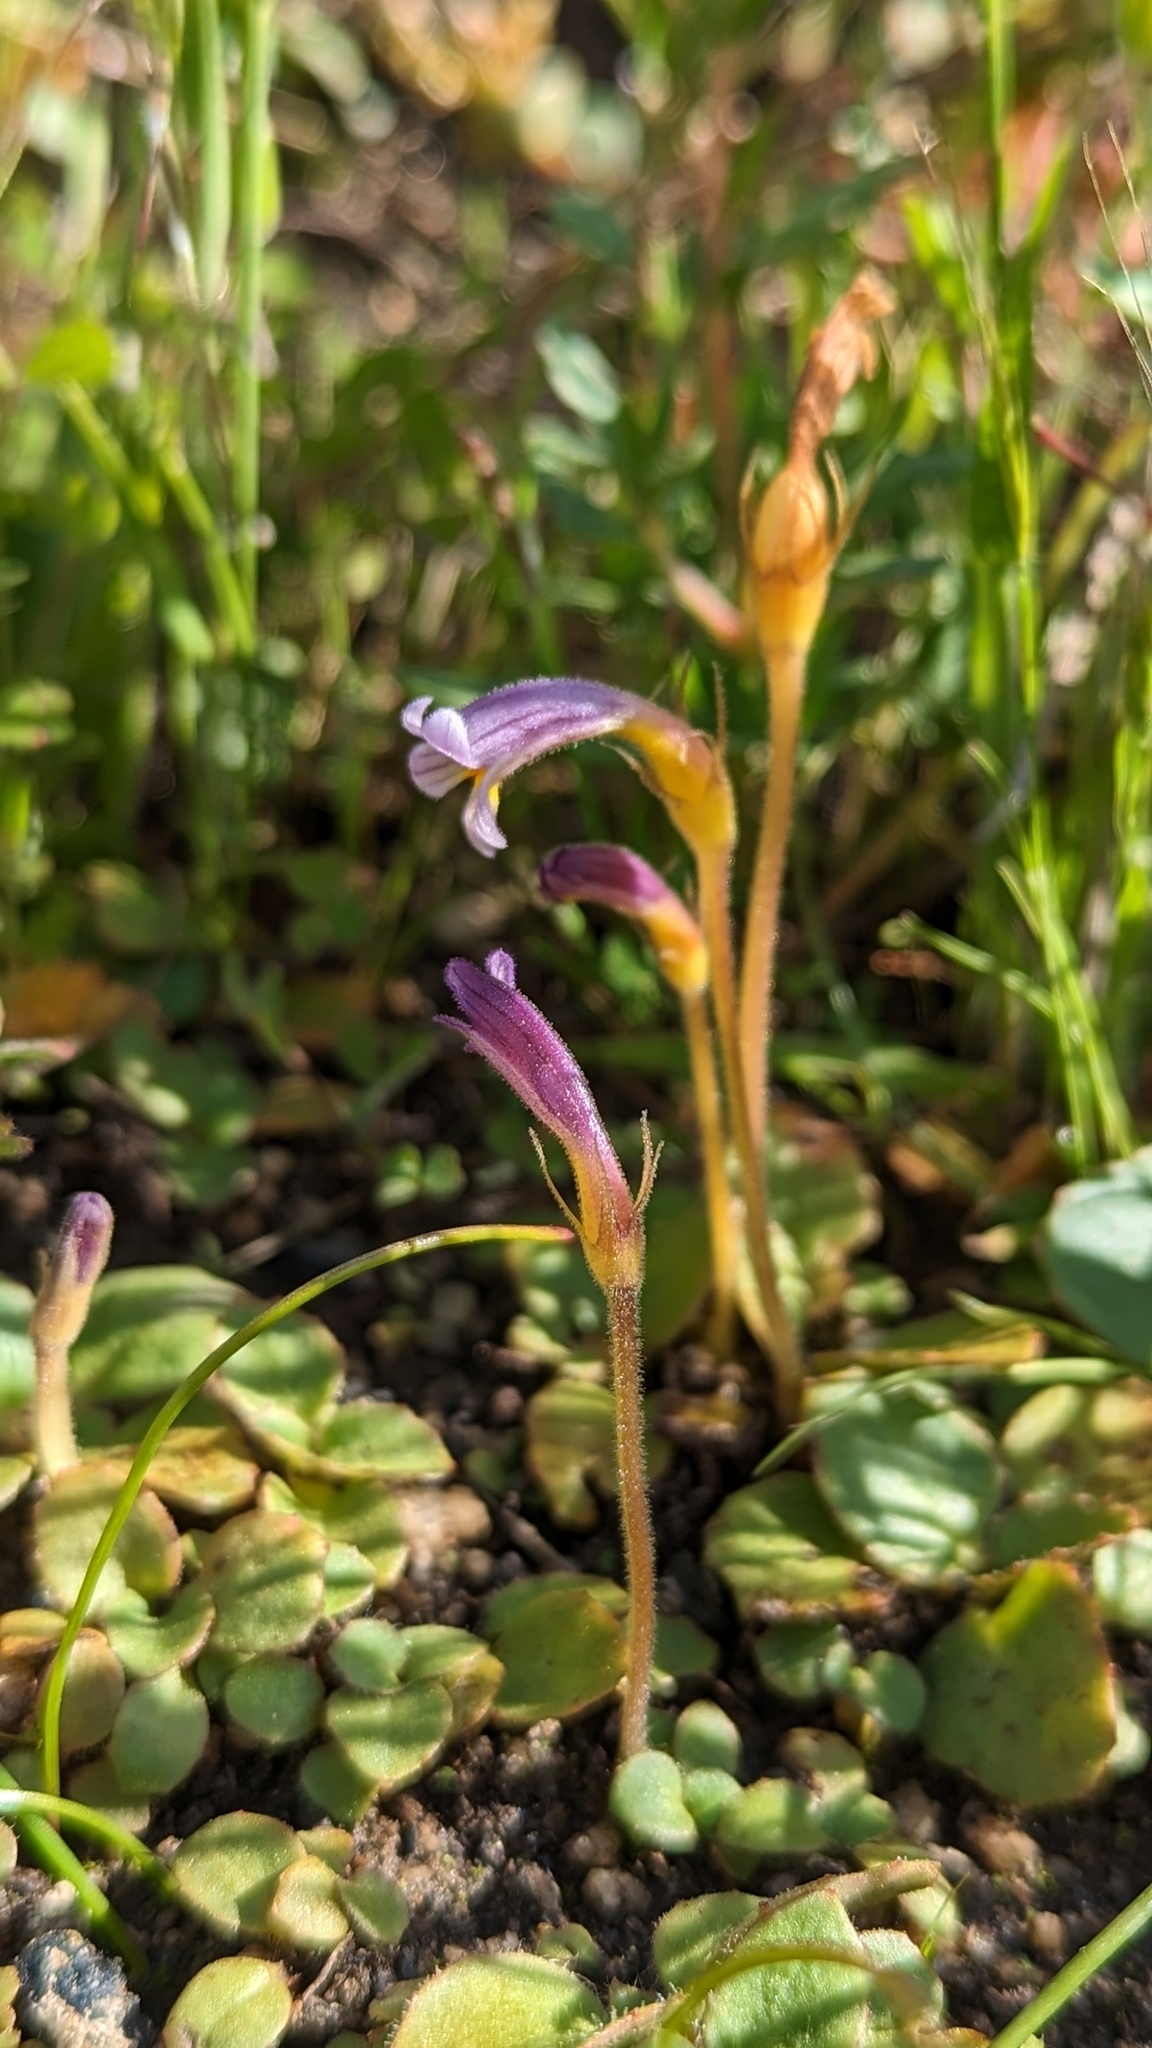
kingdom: Plantae
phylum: Tracheophyta
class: Magnoliopsida
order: Lamiales
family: Orobanchaceae
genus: Aphyllon
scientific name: Aphyllon uniflorum
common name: One-flowered broomrape
